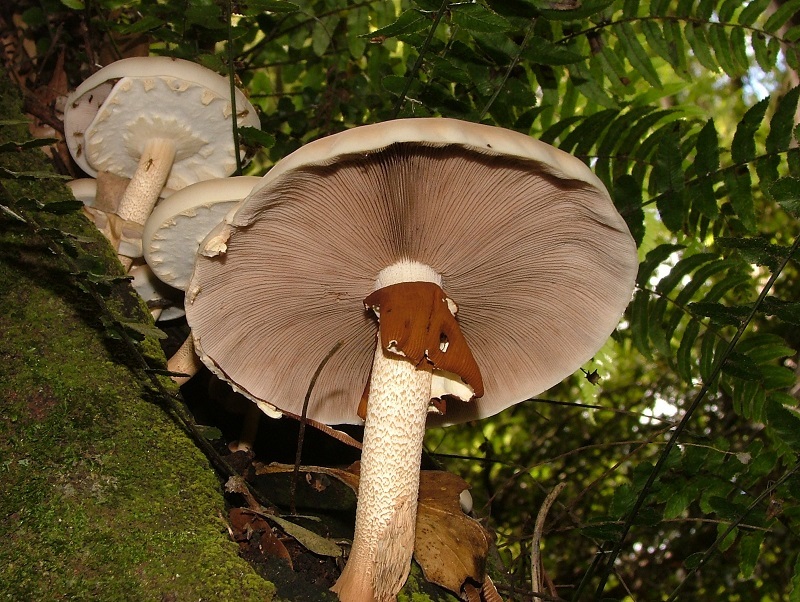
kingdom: Fungi
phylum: Basidiomycota
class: Agaricomycetes
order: Agaricales
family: Tubariaceae
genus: Cyclocybe
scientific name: Cyclocybe parasitica
